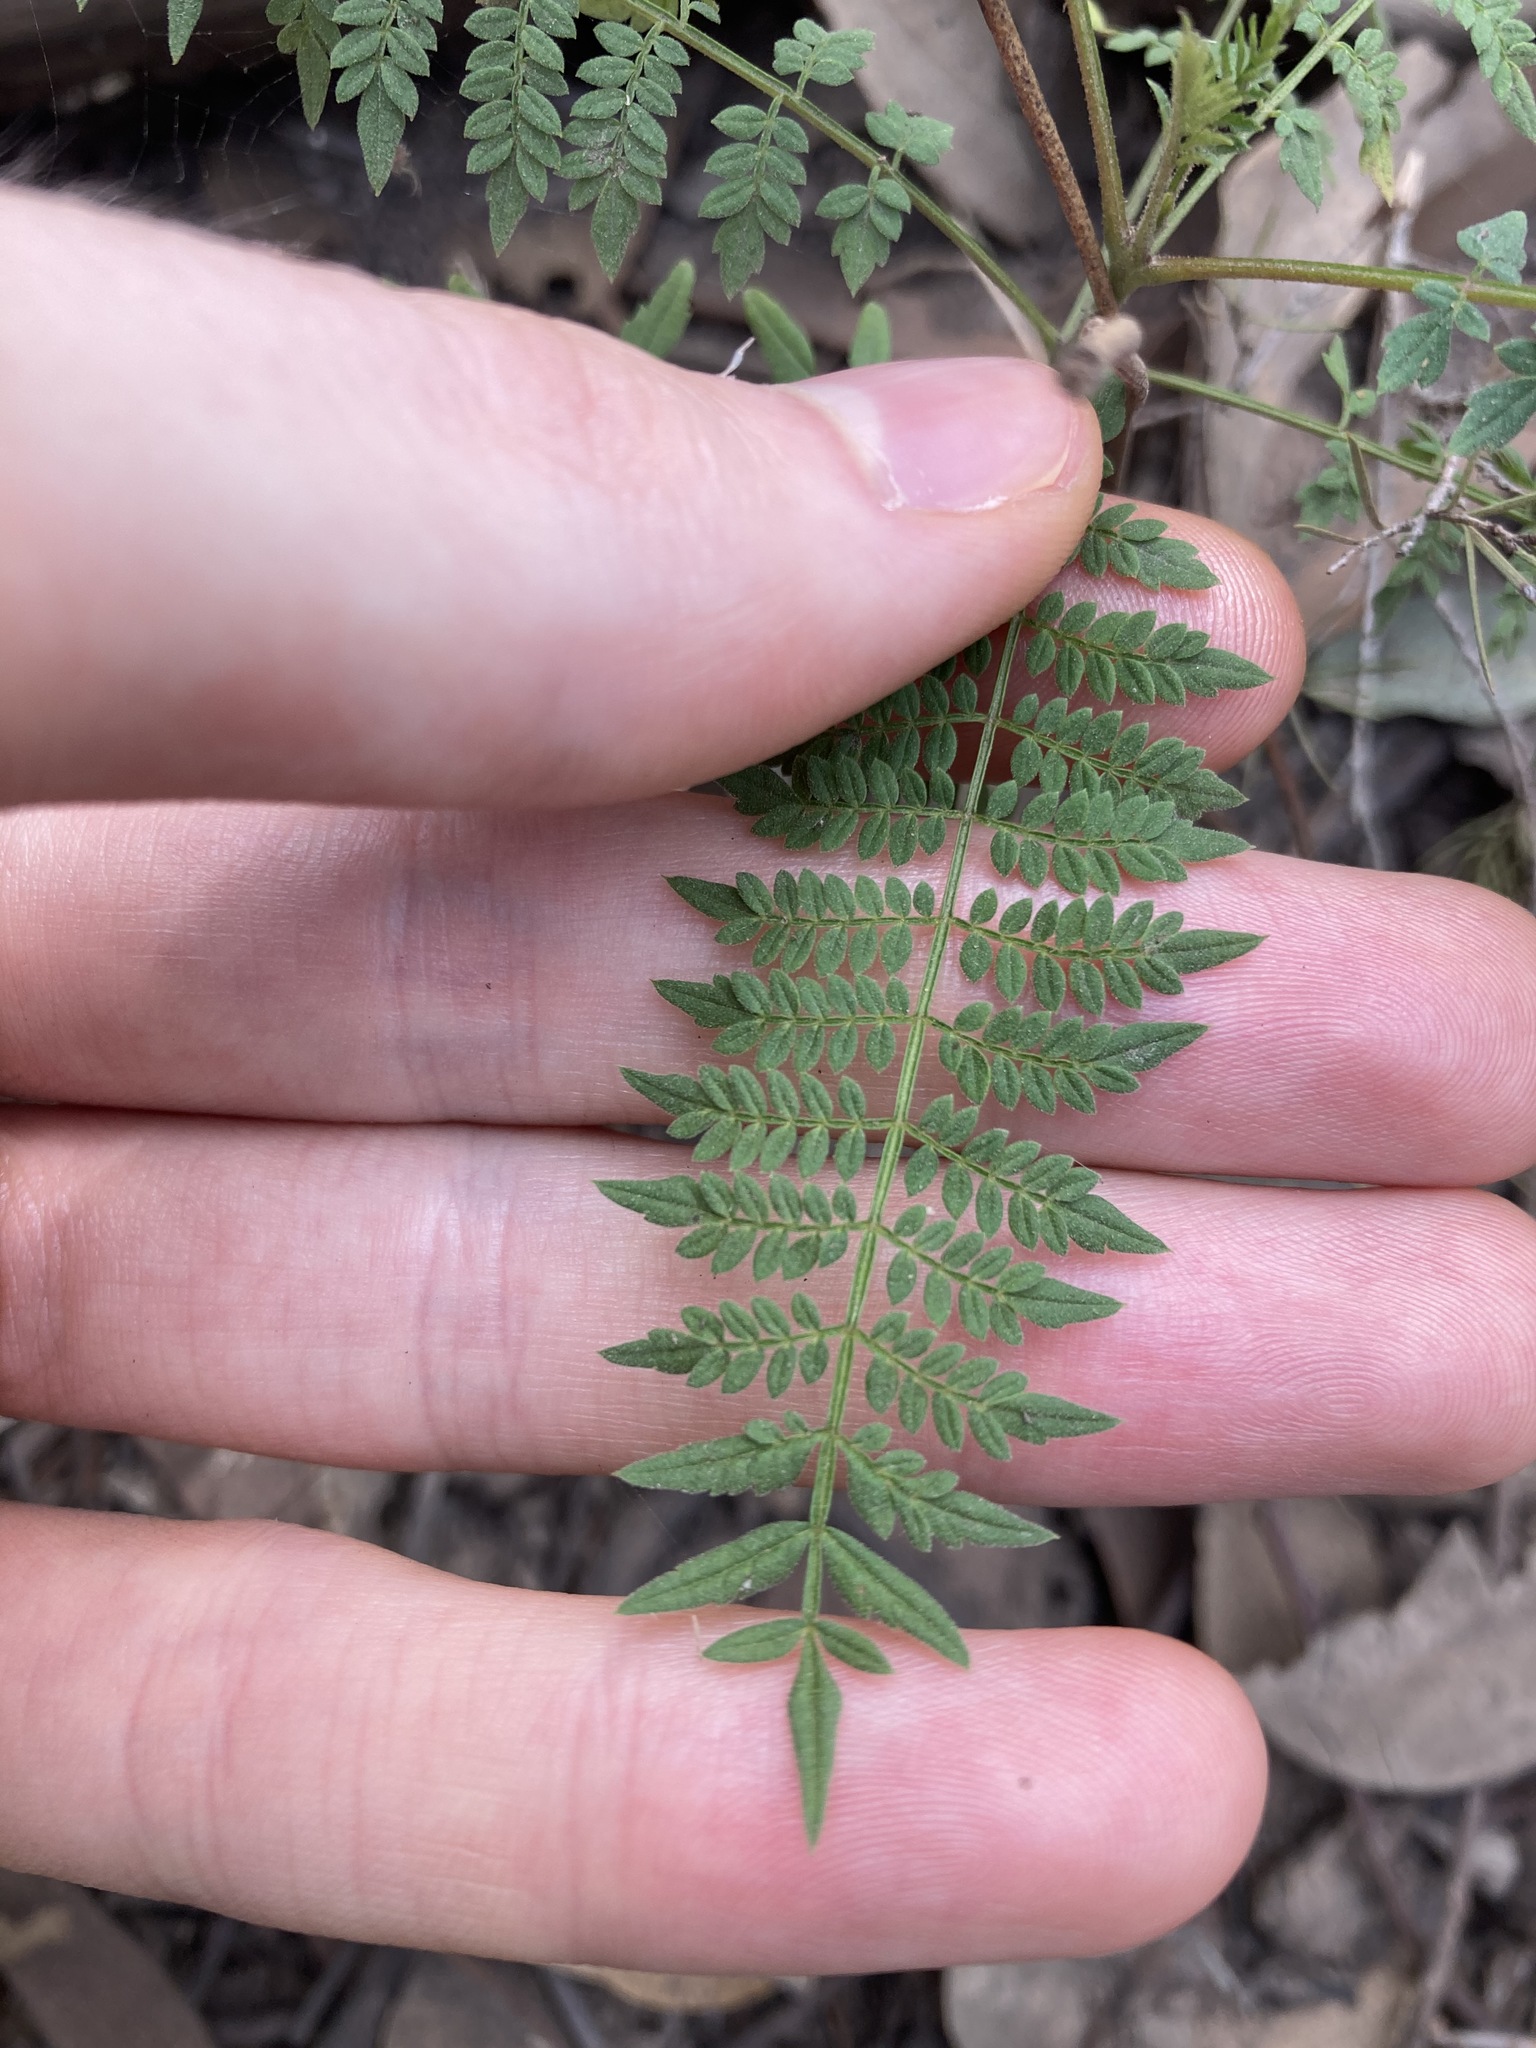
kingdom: Plantae
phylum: Tracheophyta
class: Magnoliopsida
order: Lamiales
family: Bignoniaceae
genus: Jacaranda
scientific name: Jacaranda mimosifolia
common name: Black poui
